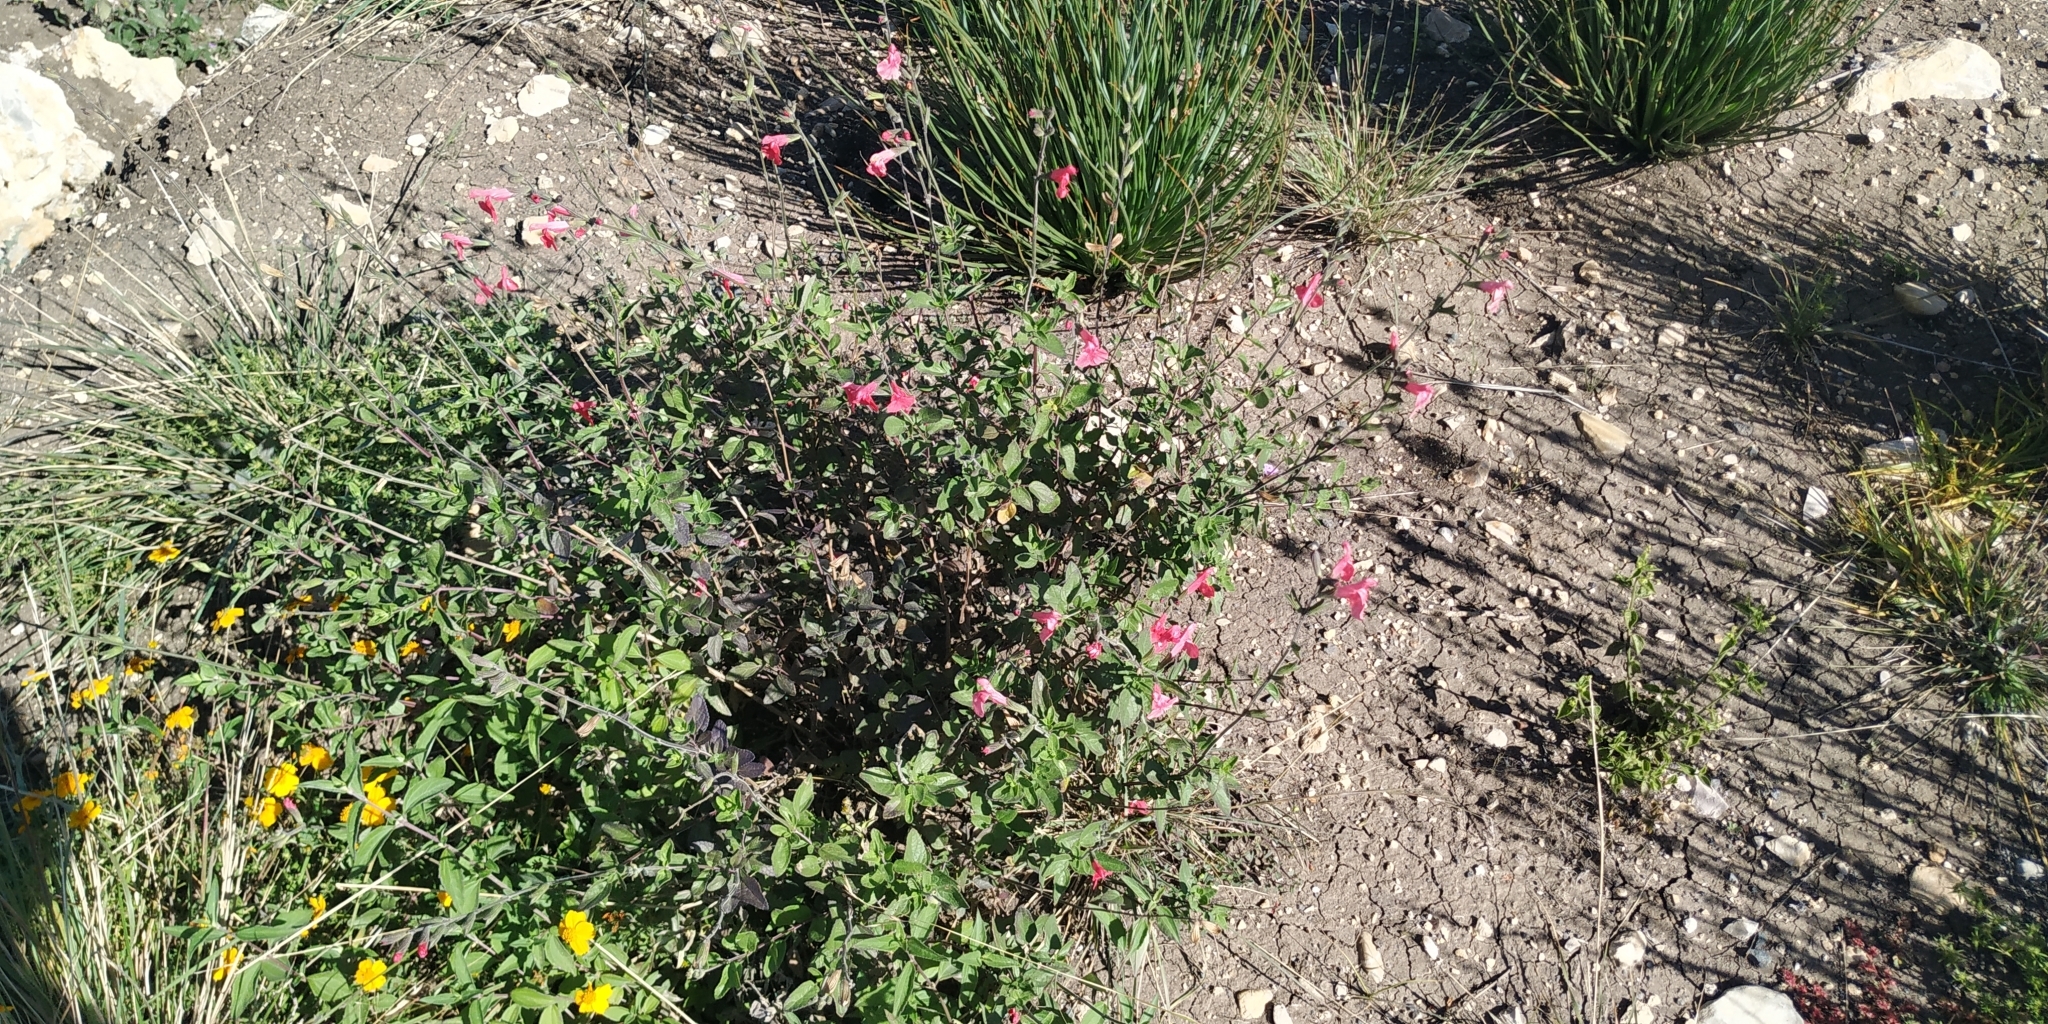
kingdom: Plantae
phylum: Tracheophyta
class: Magnoliopsida
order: Lamiales
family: Lamiaceae
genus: Salvia
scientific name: Salvia microphylla
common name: Baby sage
